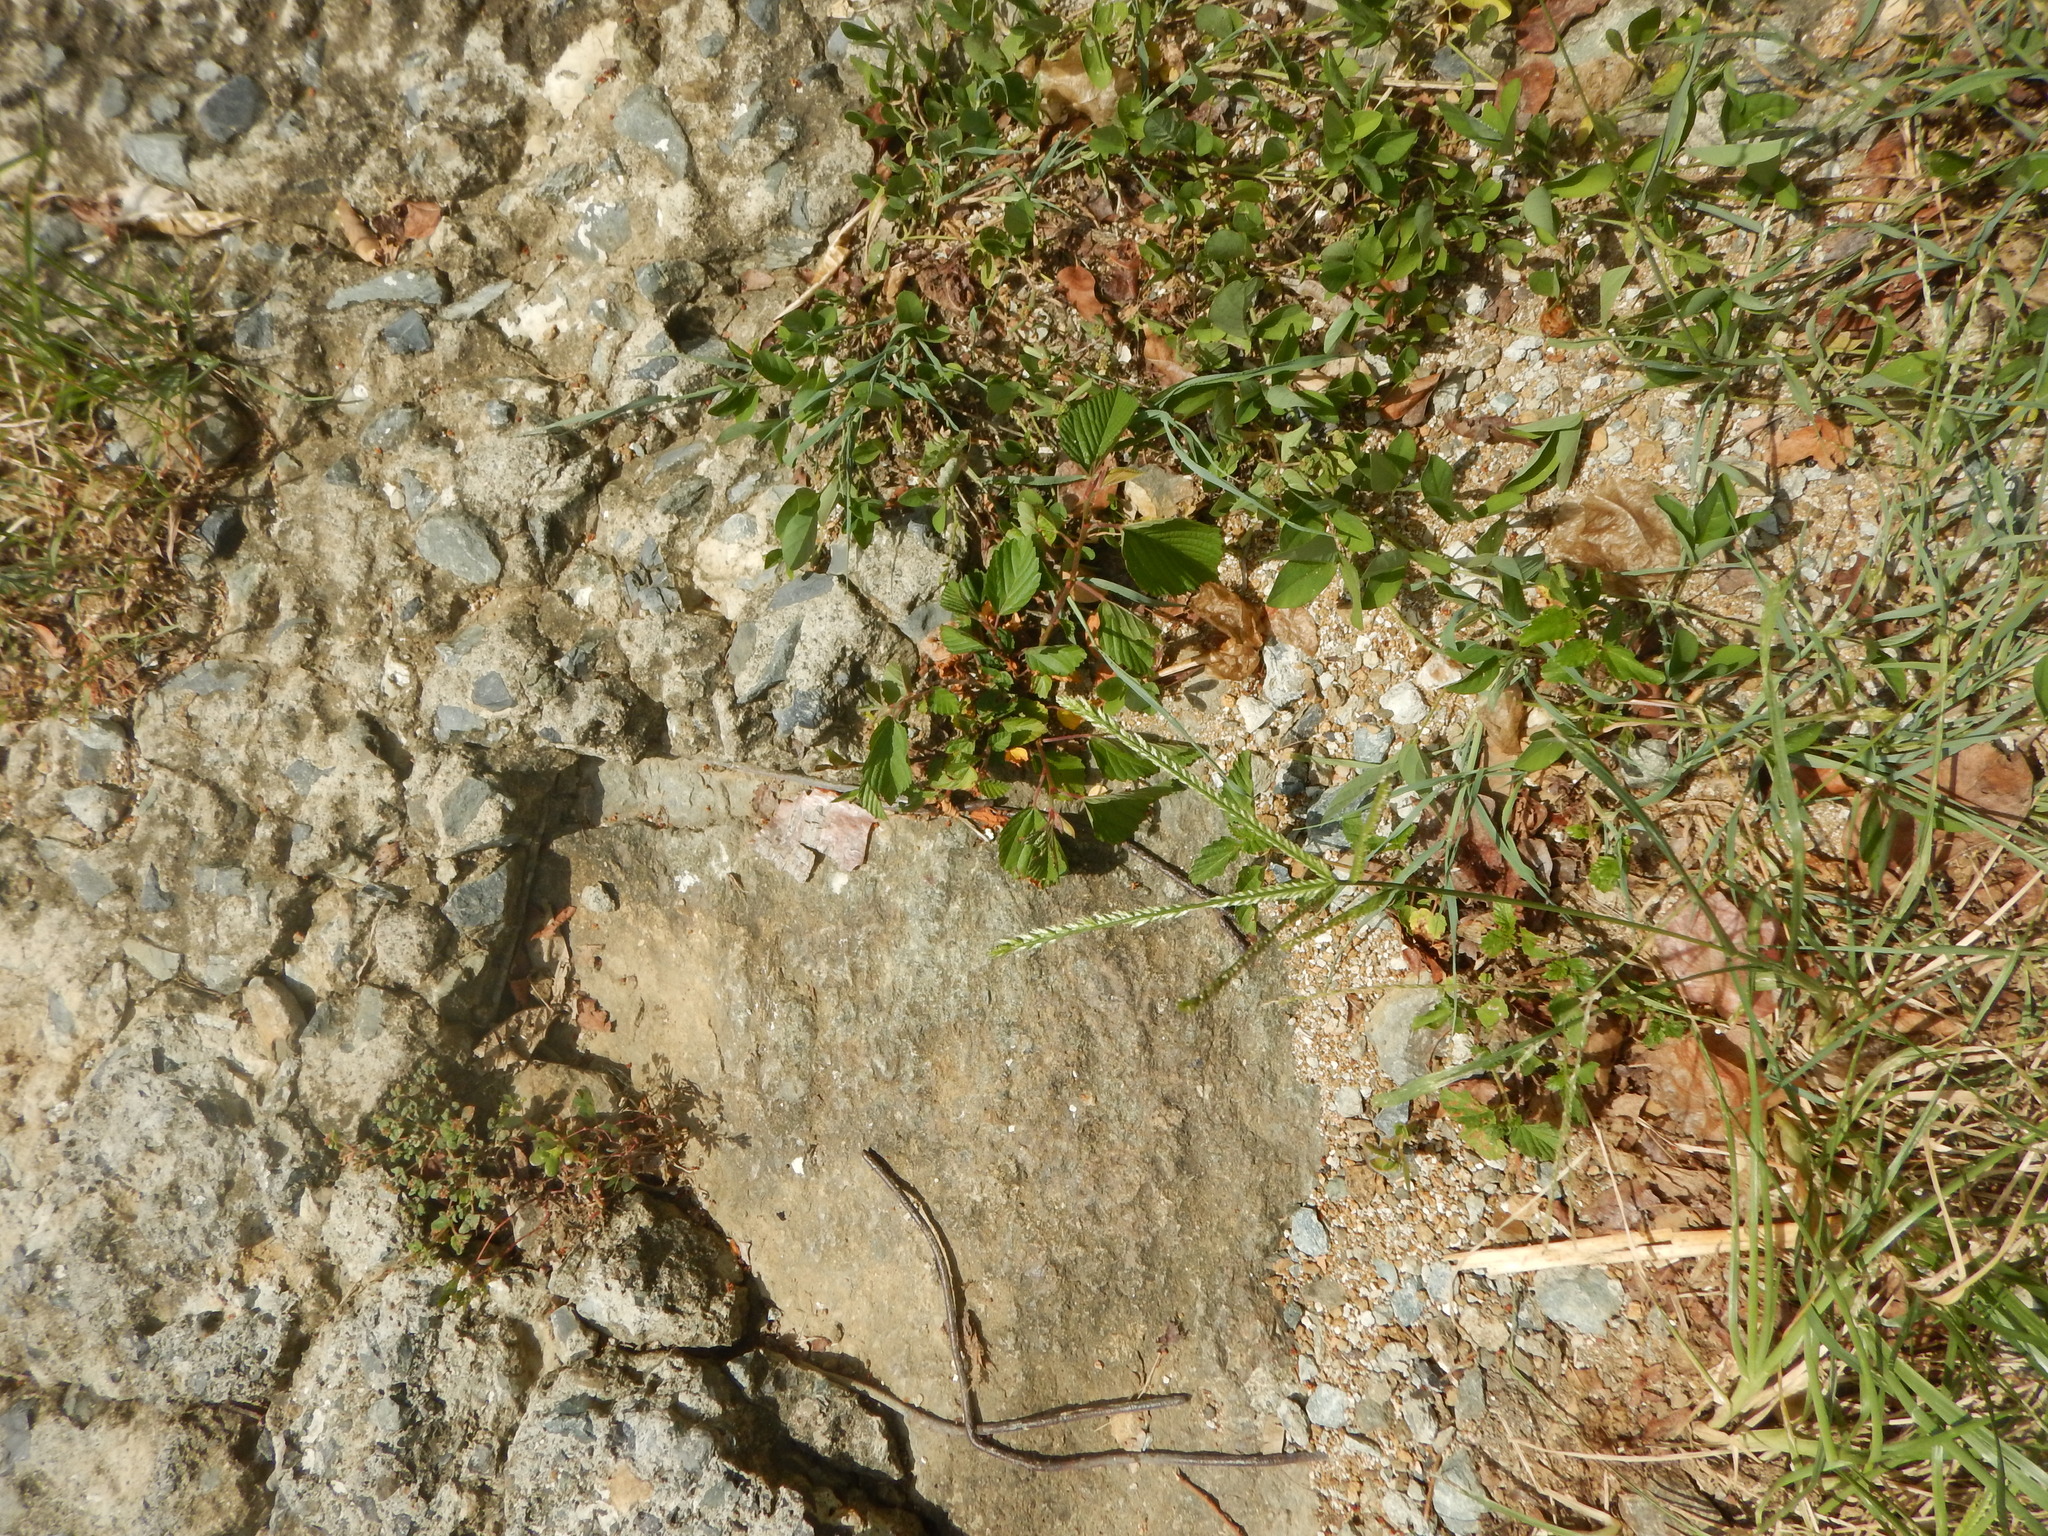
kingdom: Plantae
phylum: Tracheophyta
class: Liliopsida
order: Poales
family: Poaceae
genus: Eleusine
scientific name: Eleusine indica
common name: Yard-grass
